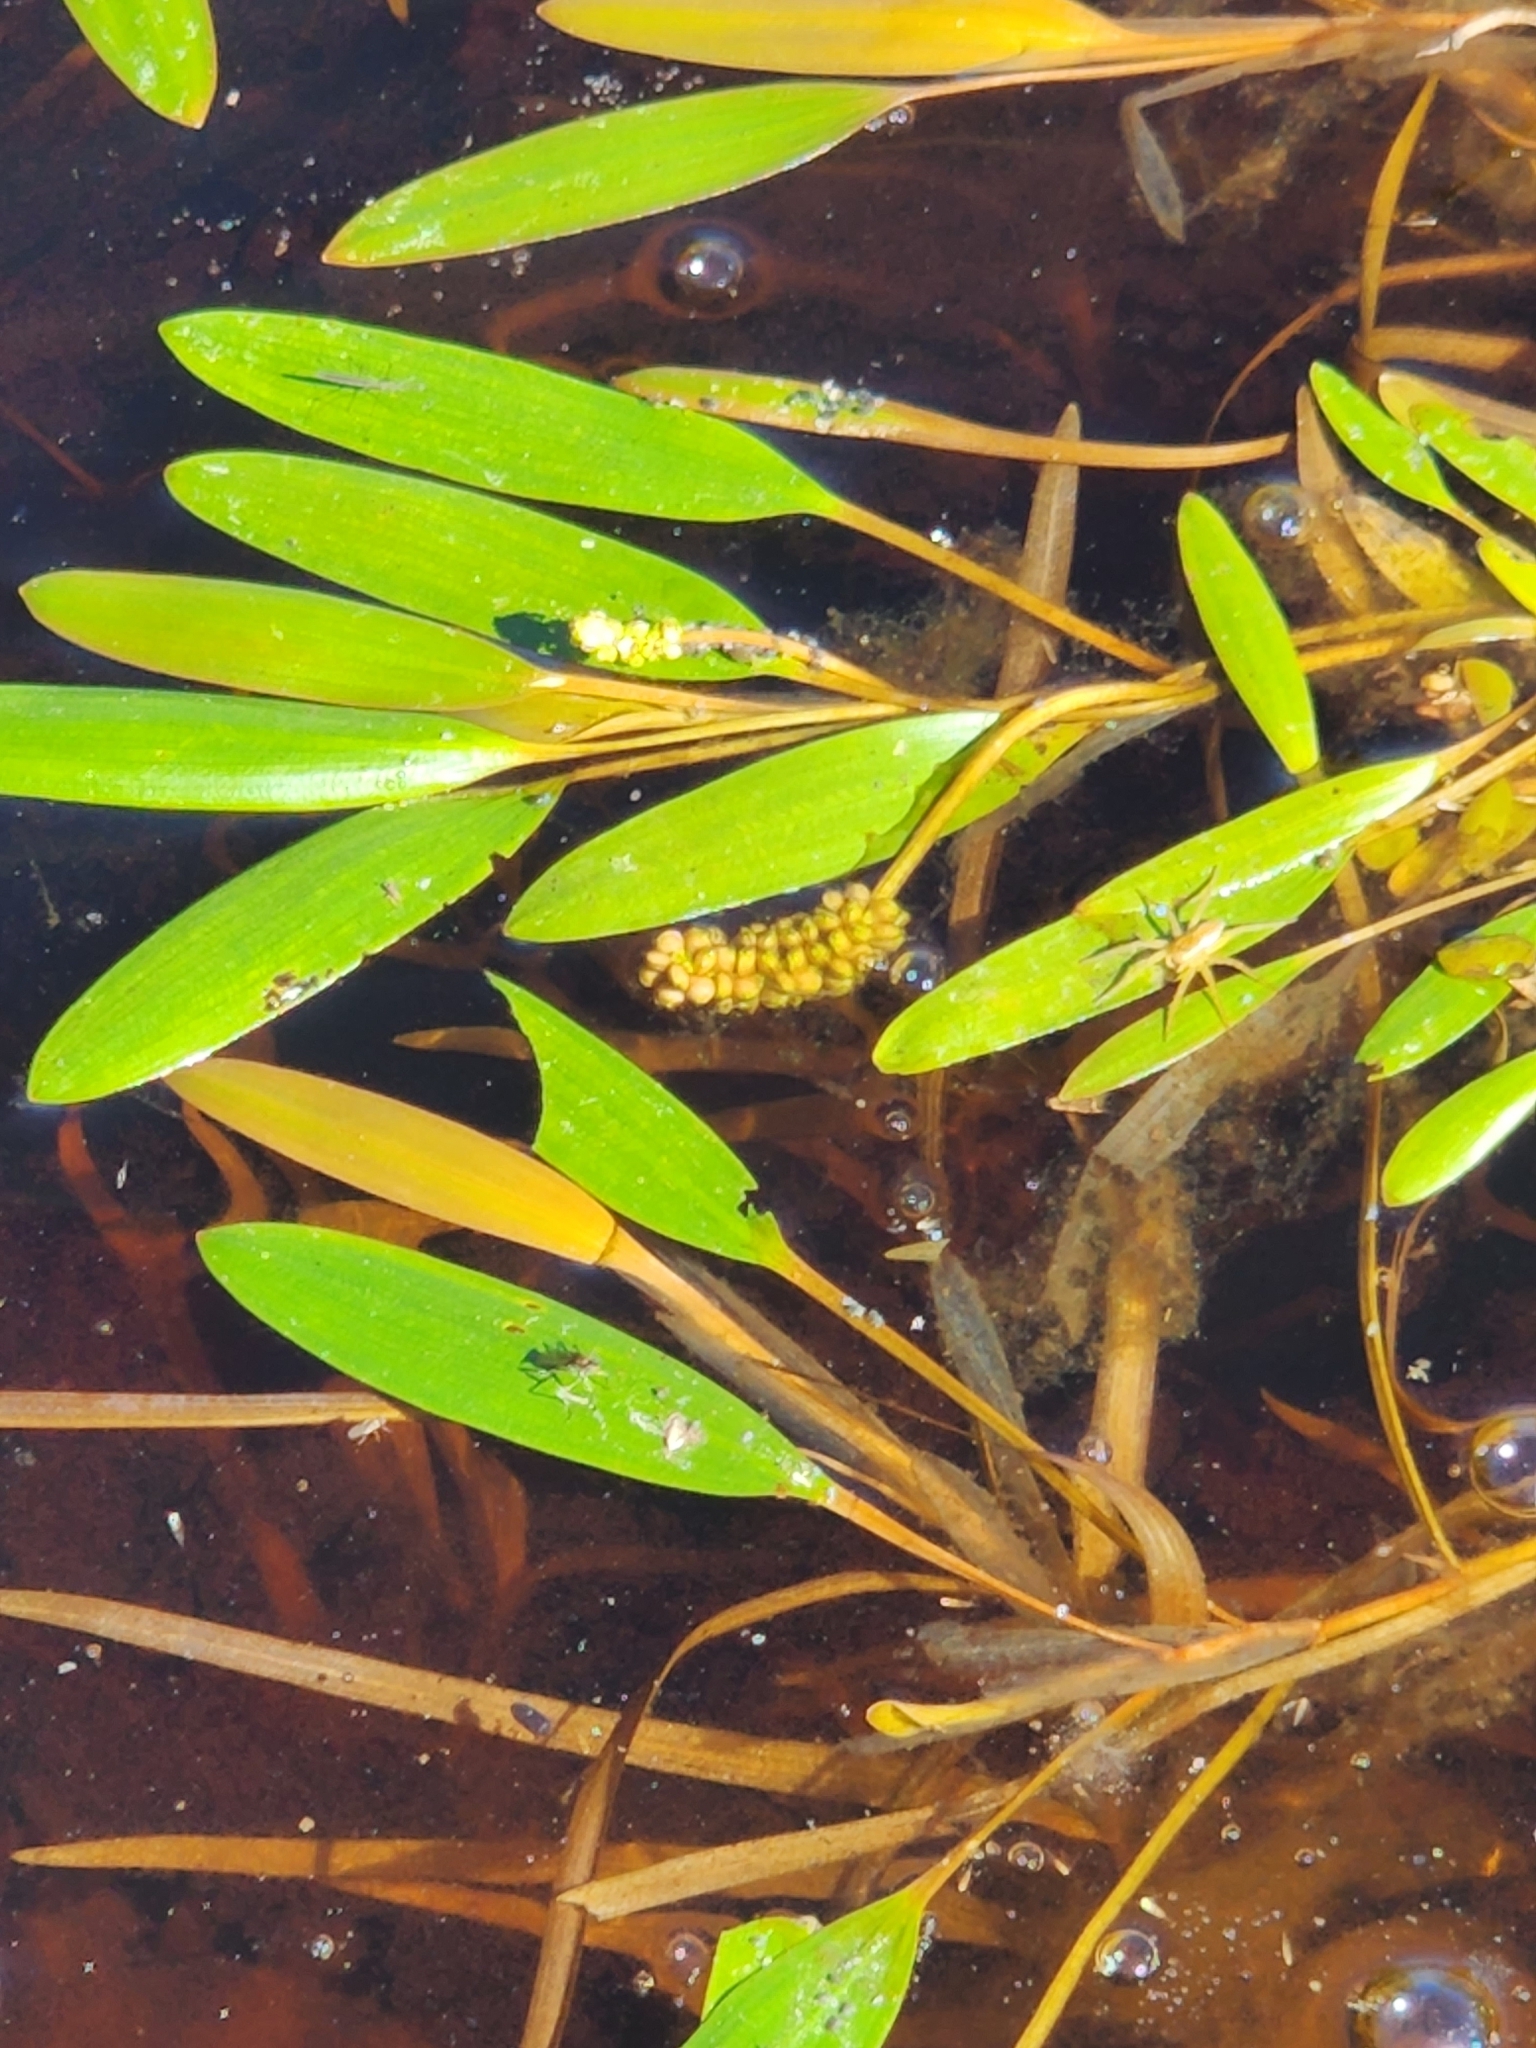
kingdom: Plantae
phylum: Tracheophyta
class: Liliopsida
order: Alismatales
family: Potamogetonaceae
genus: Potamogeton
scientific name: Potamogeton epihydrus
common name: American pondweed
